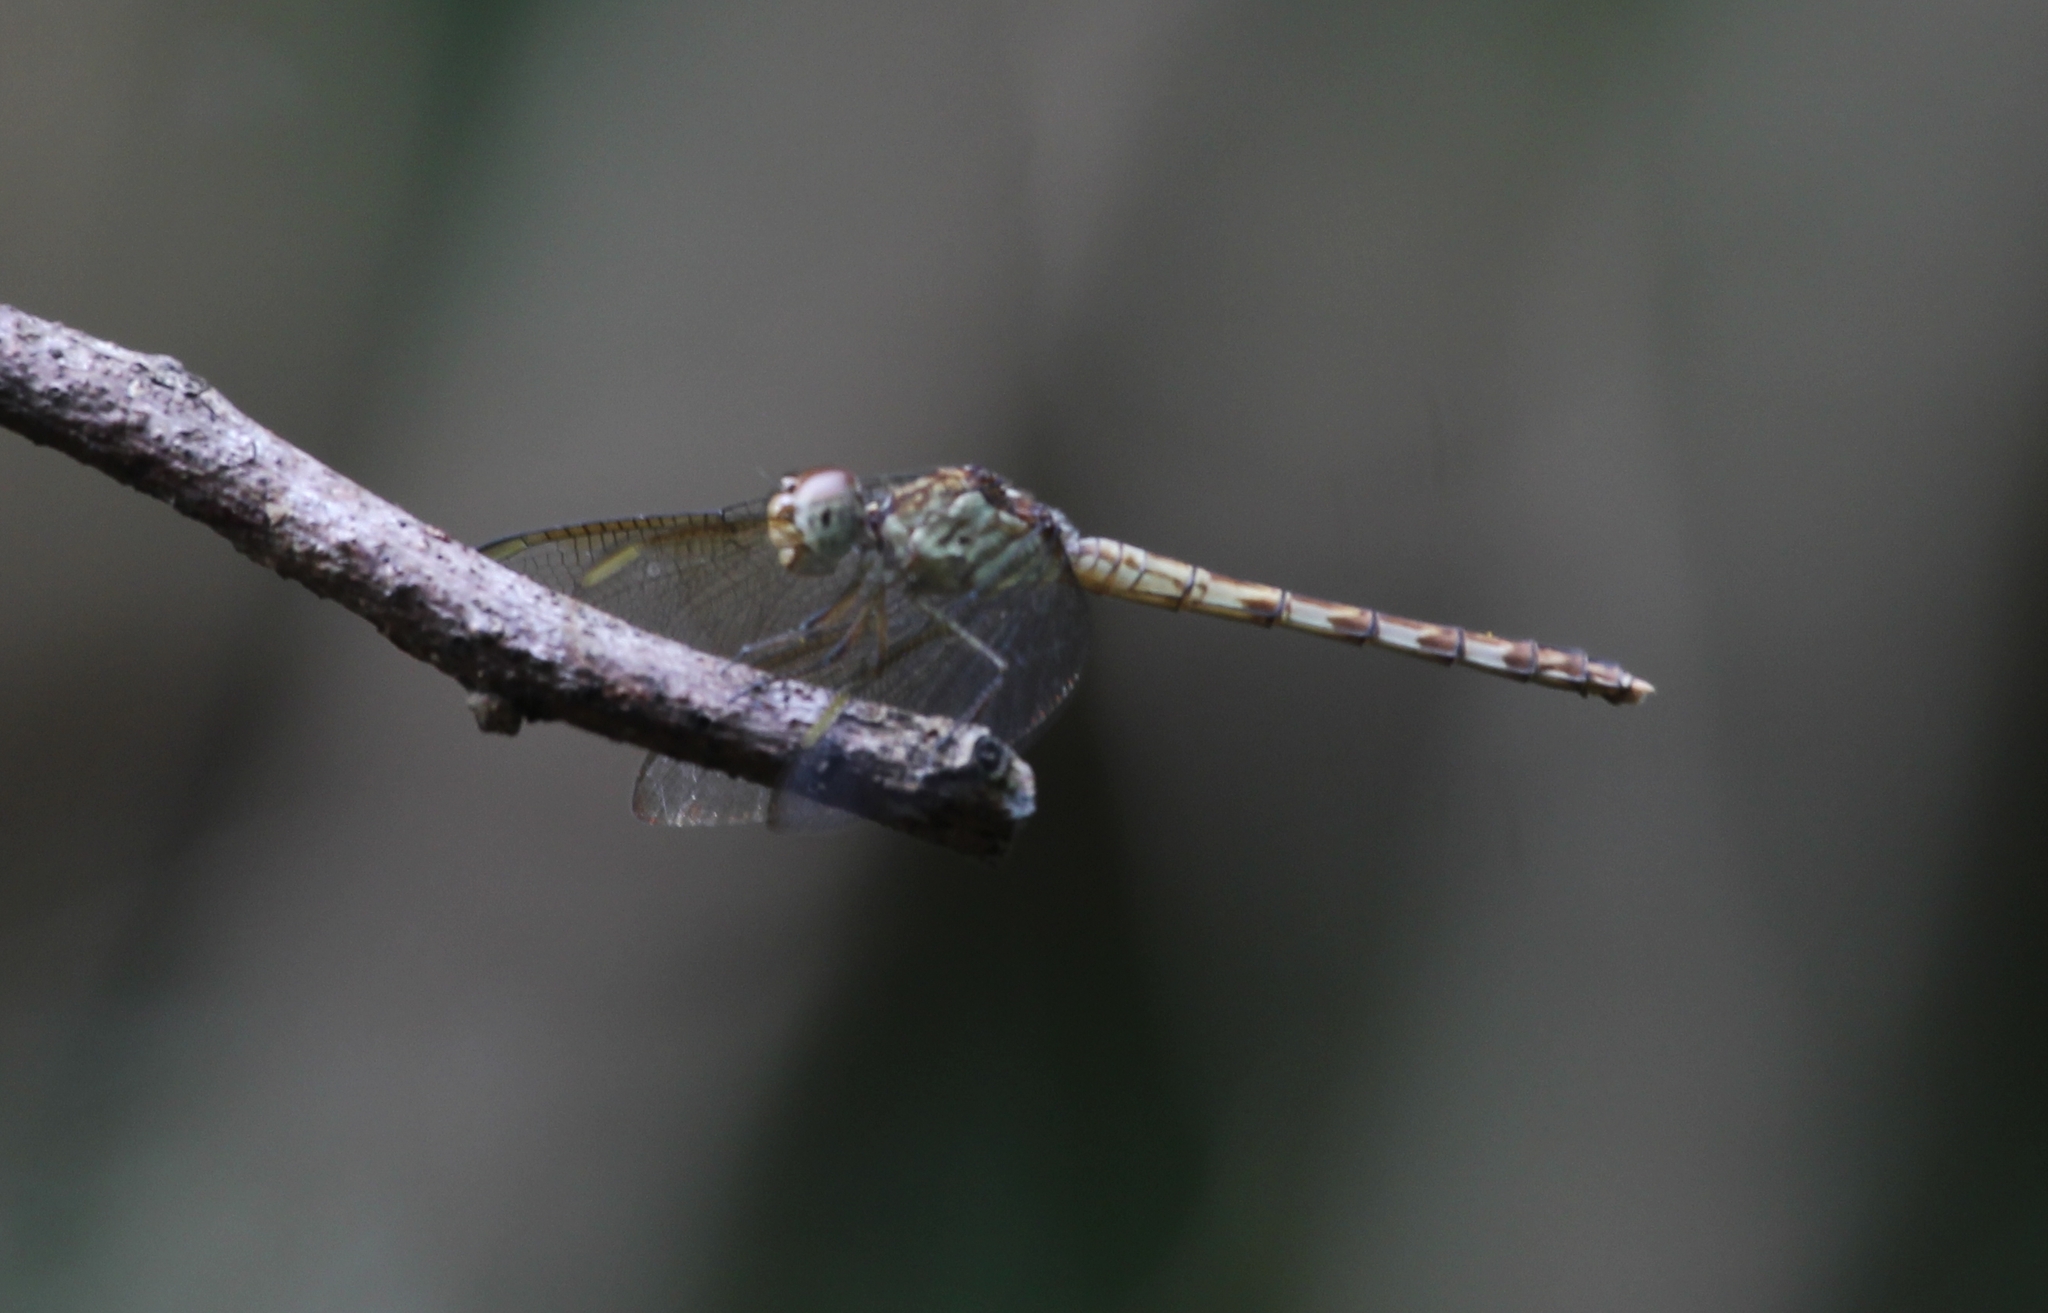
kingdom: Animalia
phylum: Arthropoda
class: Insecta
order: Odonata
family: Libellulidae
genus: Erythrodiplax
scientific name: Erythrodiplax umbrata
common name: Band-winged dragonlet
